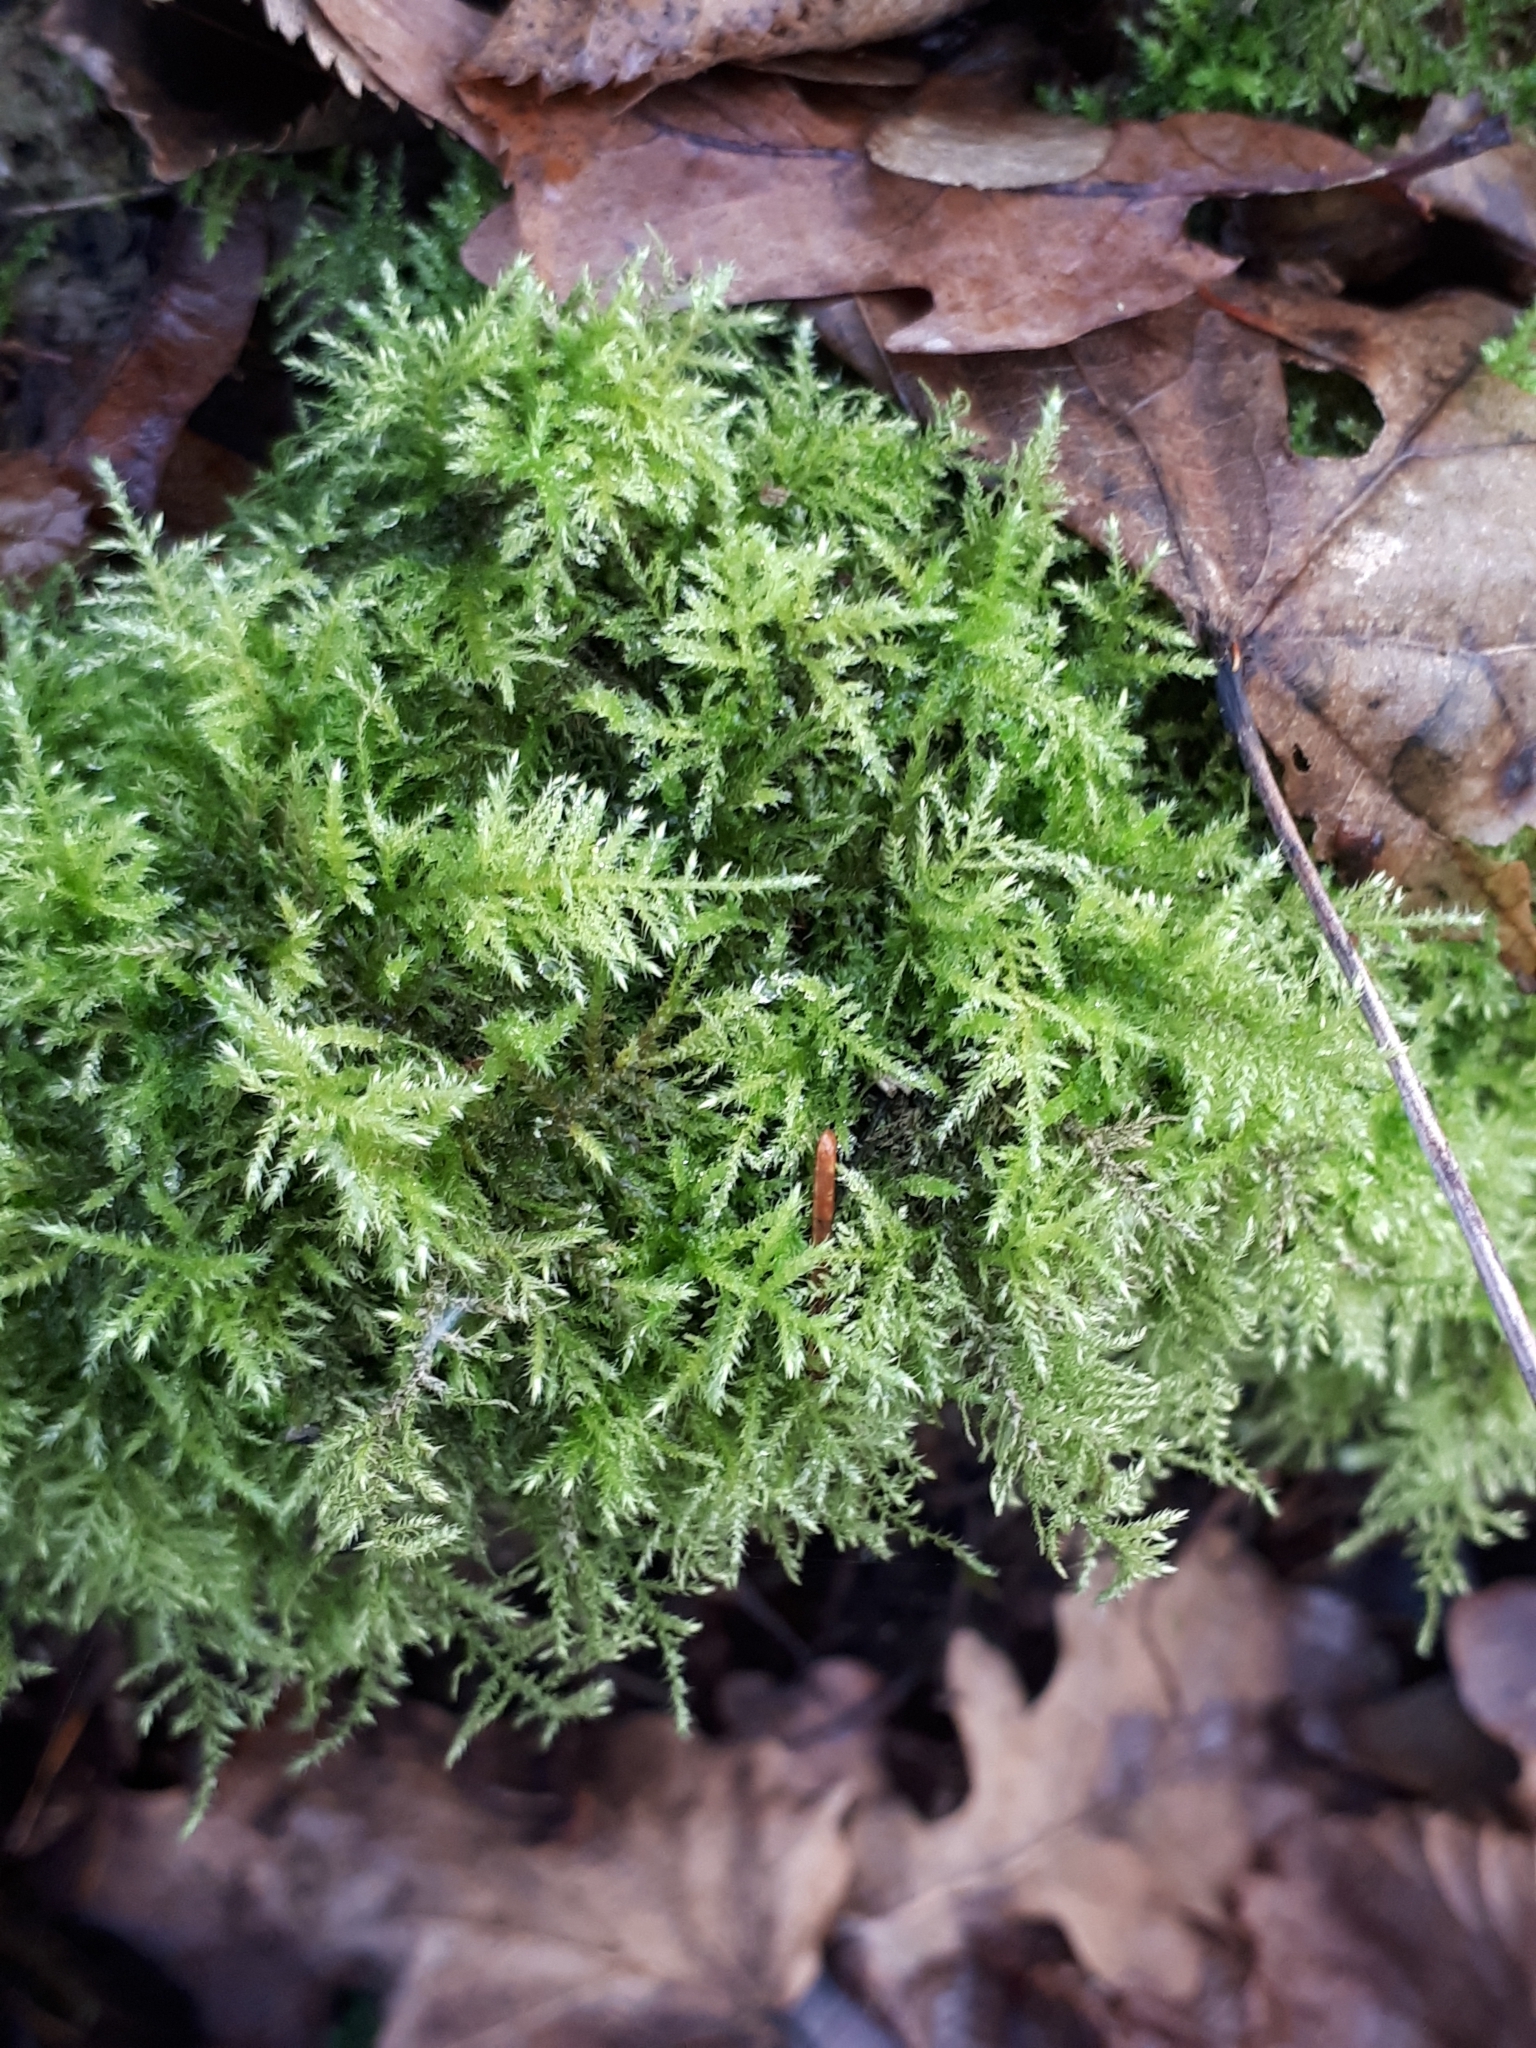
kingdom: Plantae
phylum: Bryophyta
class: Bryopsida
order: Hypnales
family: Brachytheciaceae
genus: Kindbergia
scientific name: Kindbergia praelonga
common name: Slender beaked moss
